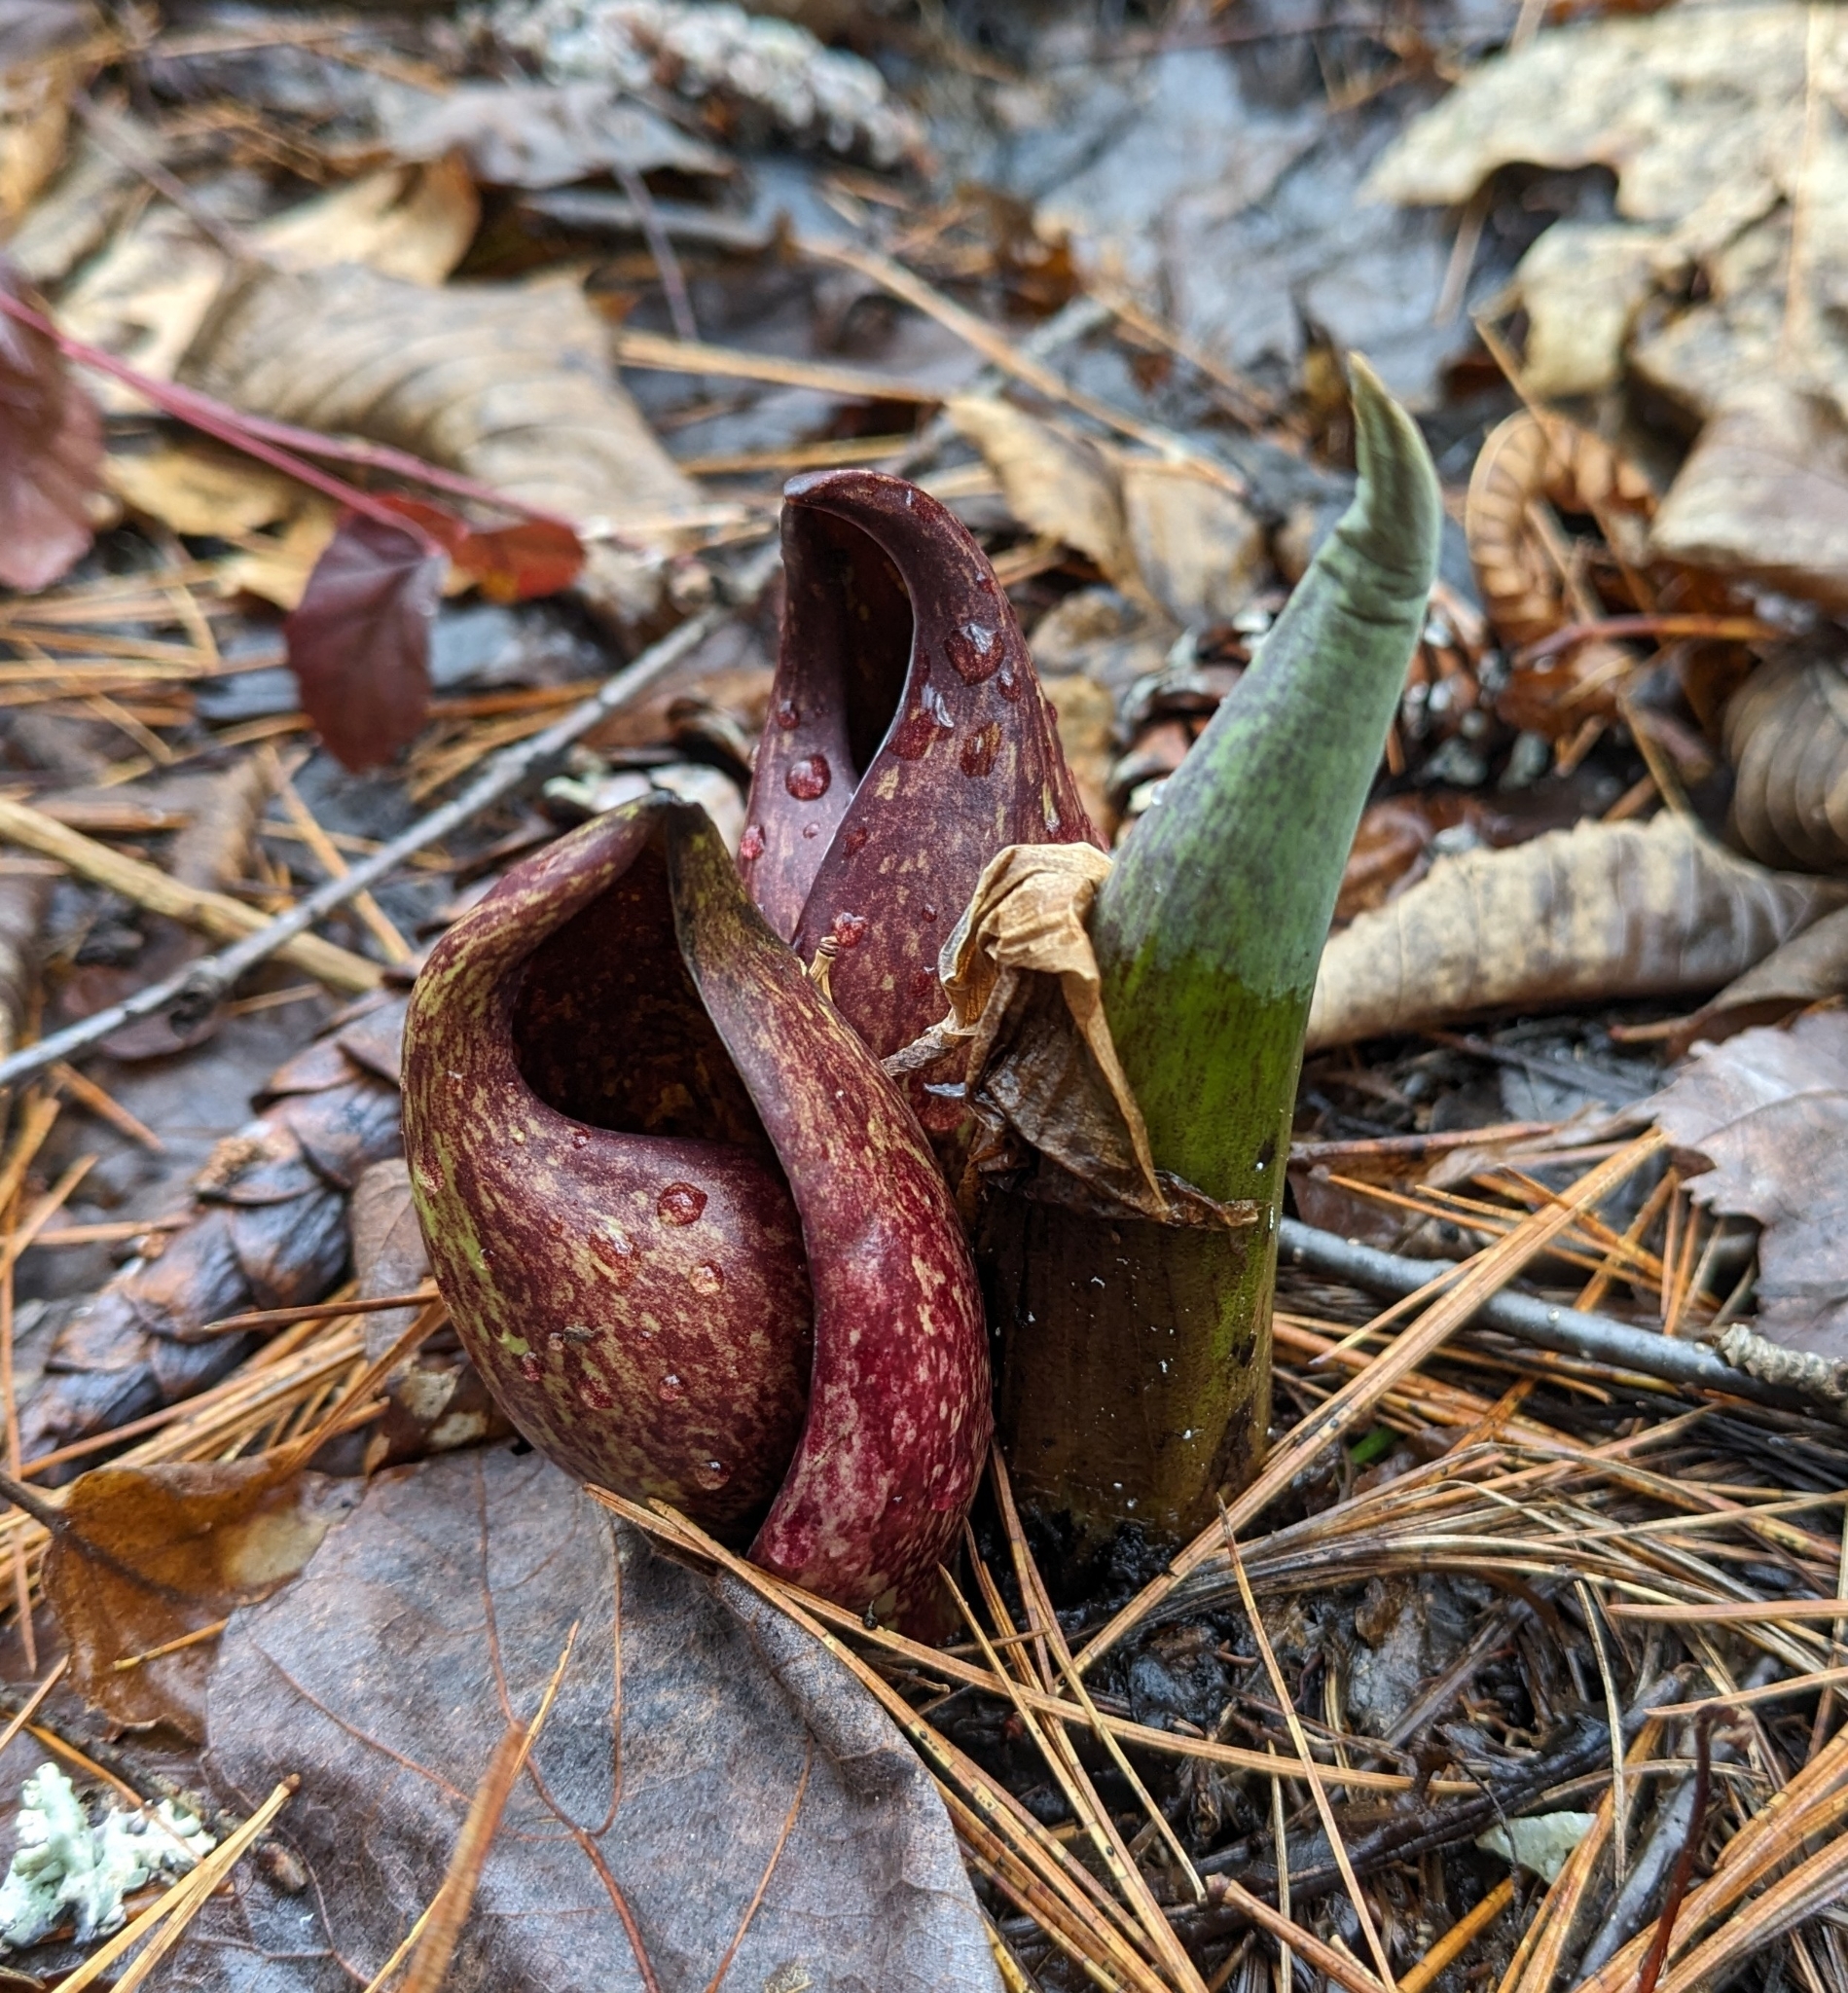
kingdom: Plantae
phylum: Tracheophyta
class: Liliopsida
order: Alismatales
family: Araceae
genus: Symplocarpus
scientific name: Symplocarpus foetidus
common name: Eastern skunk cabbage
